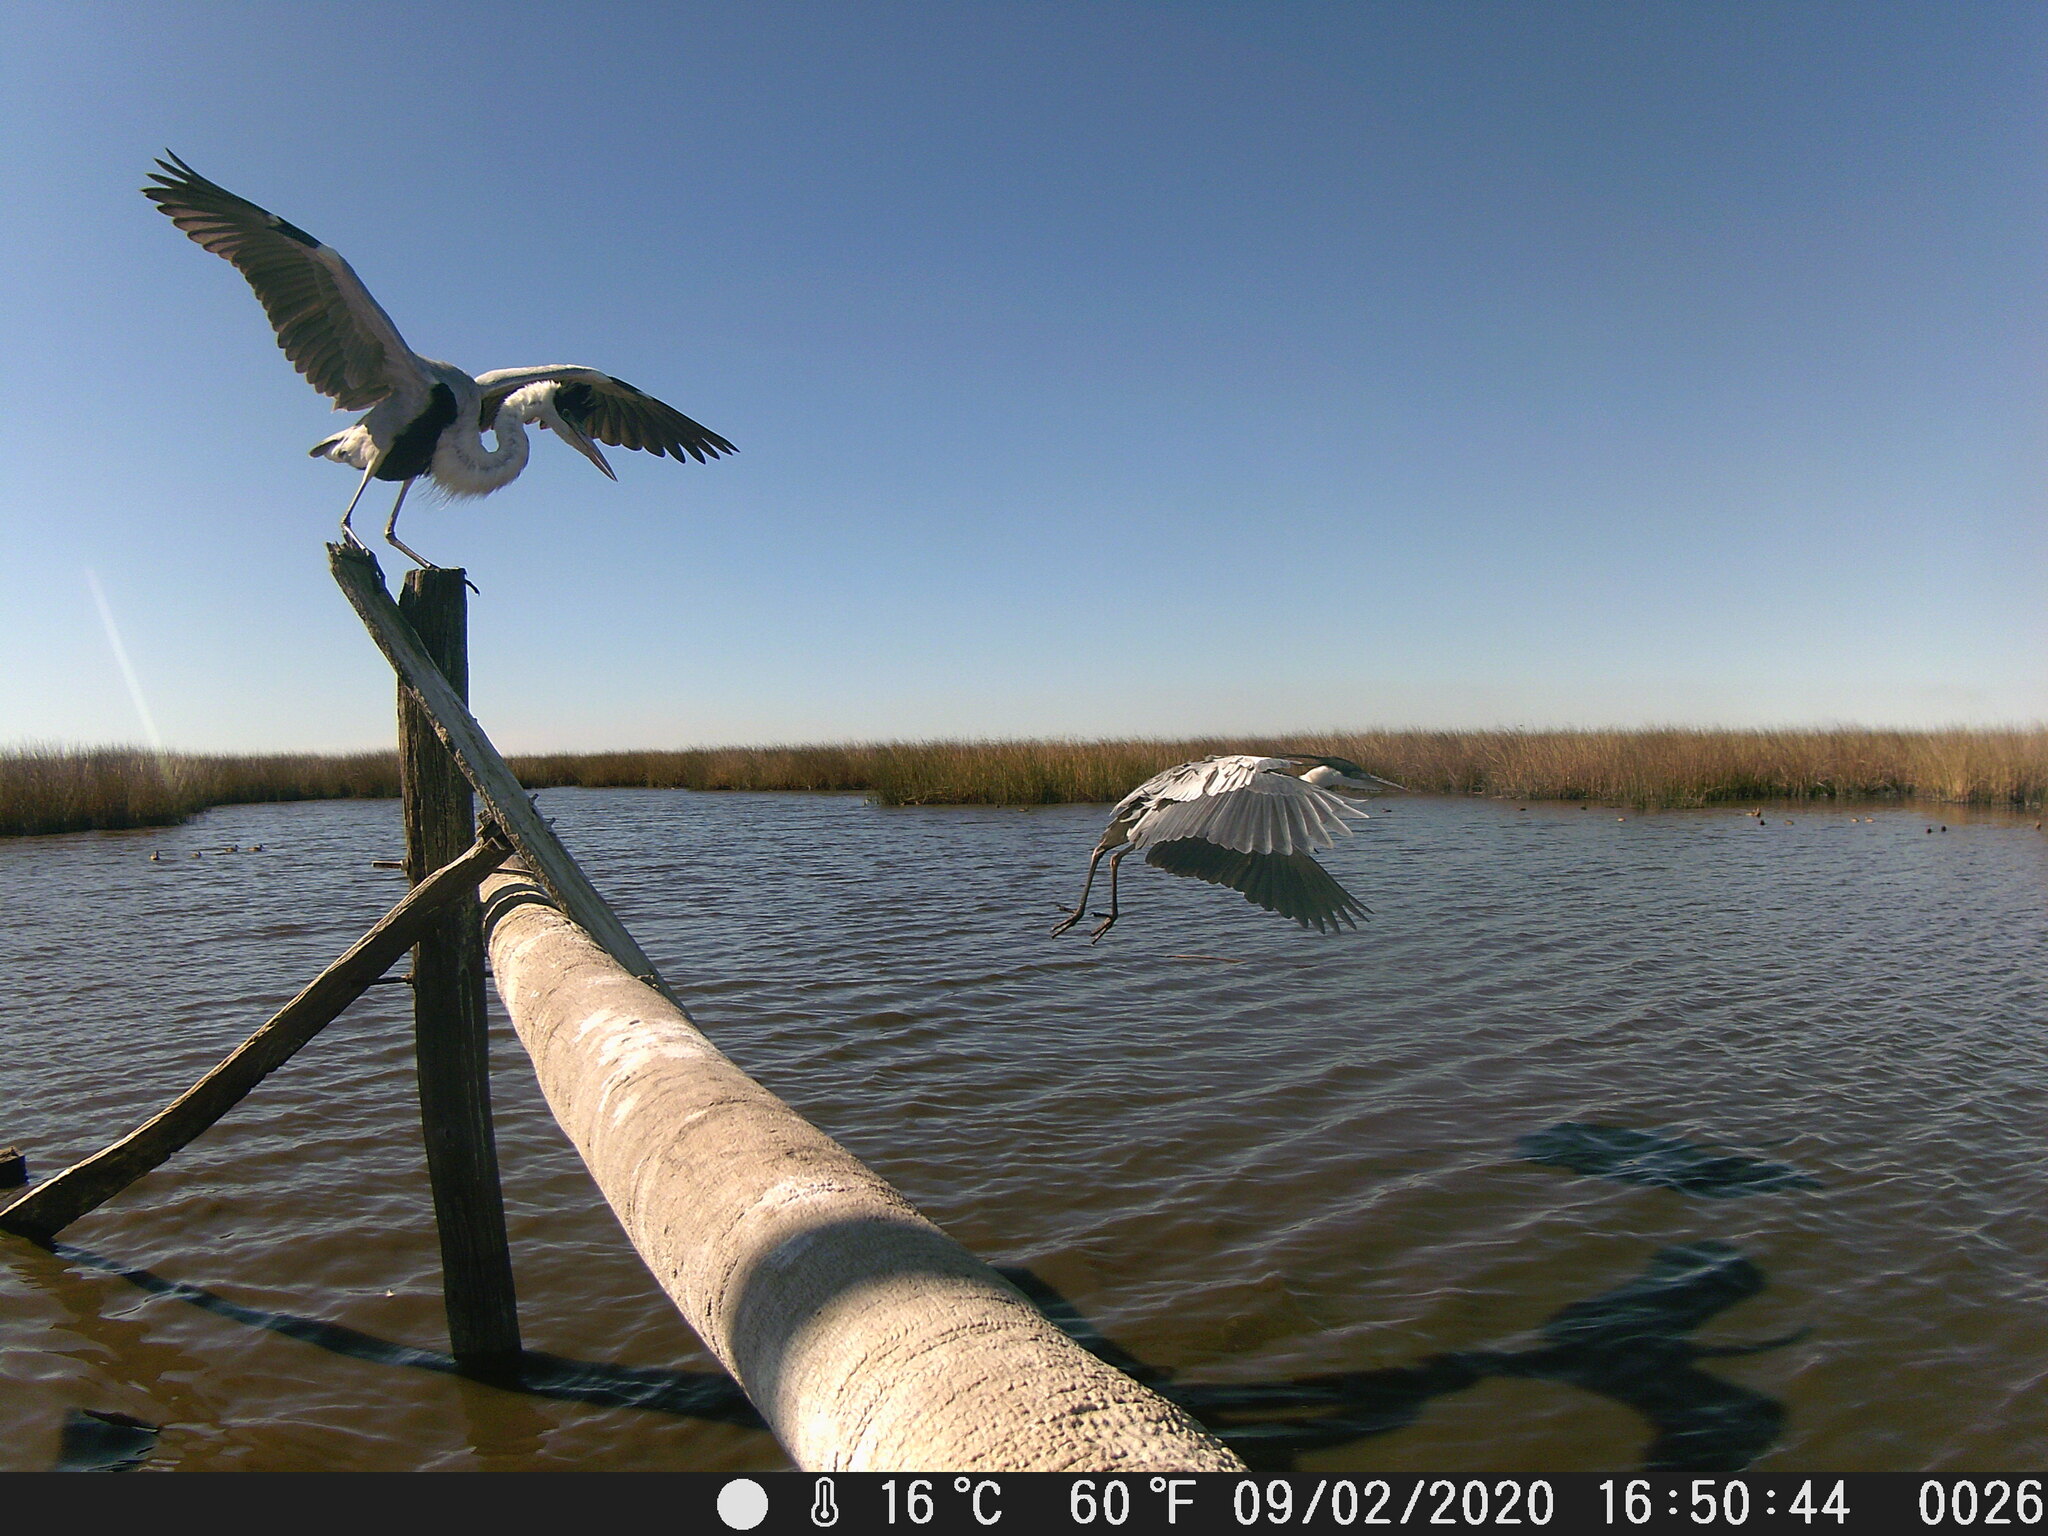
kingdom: Animalia
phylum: Chordata
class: Aves
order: Pelecaniformes
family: Ardeidae
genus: Ardea
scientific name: Ardea cocoi
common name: Cocoi heron
